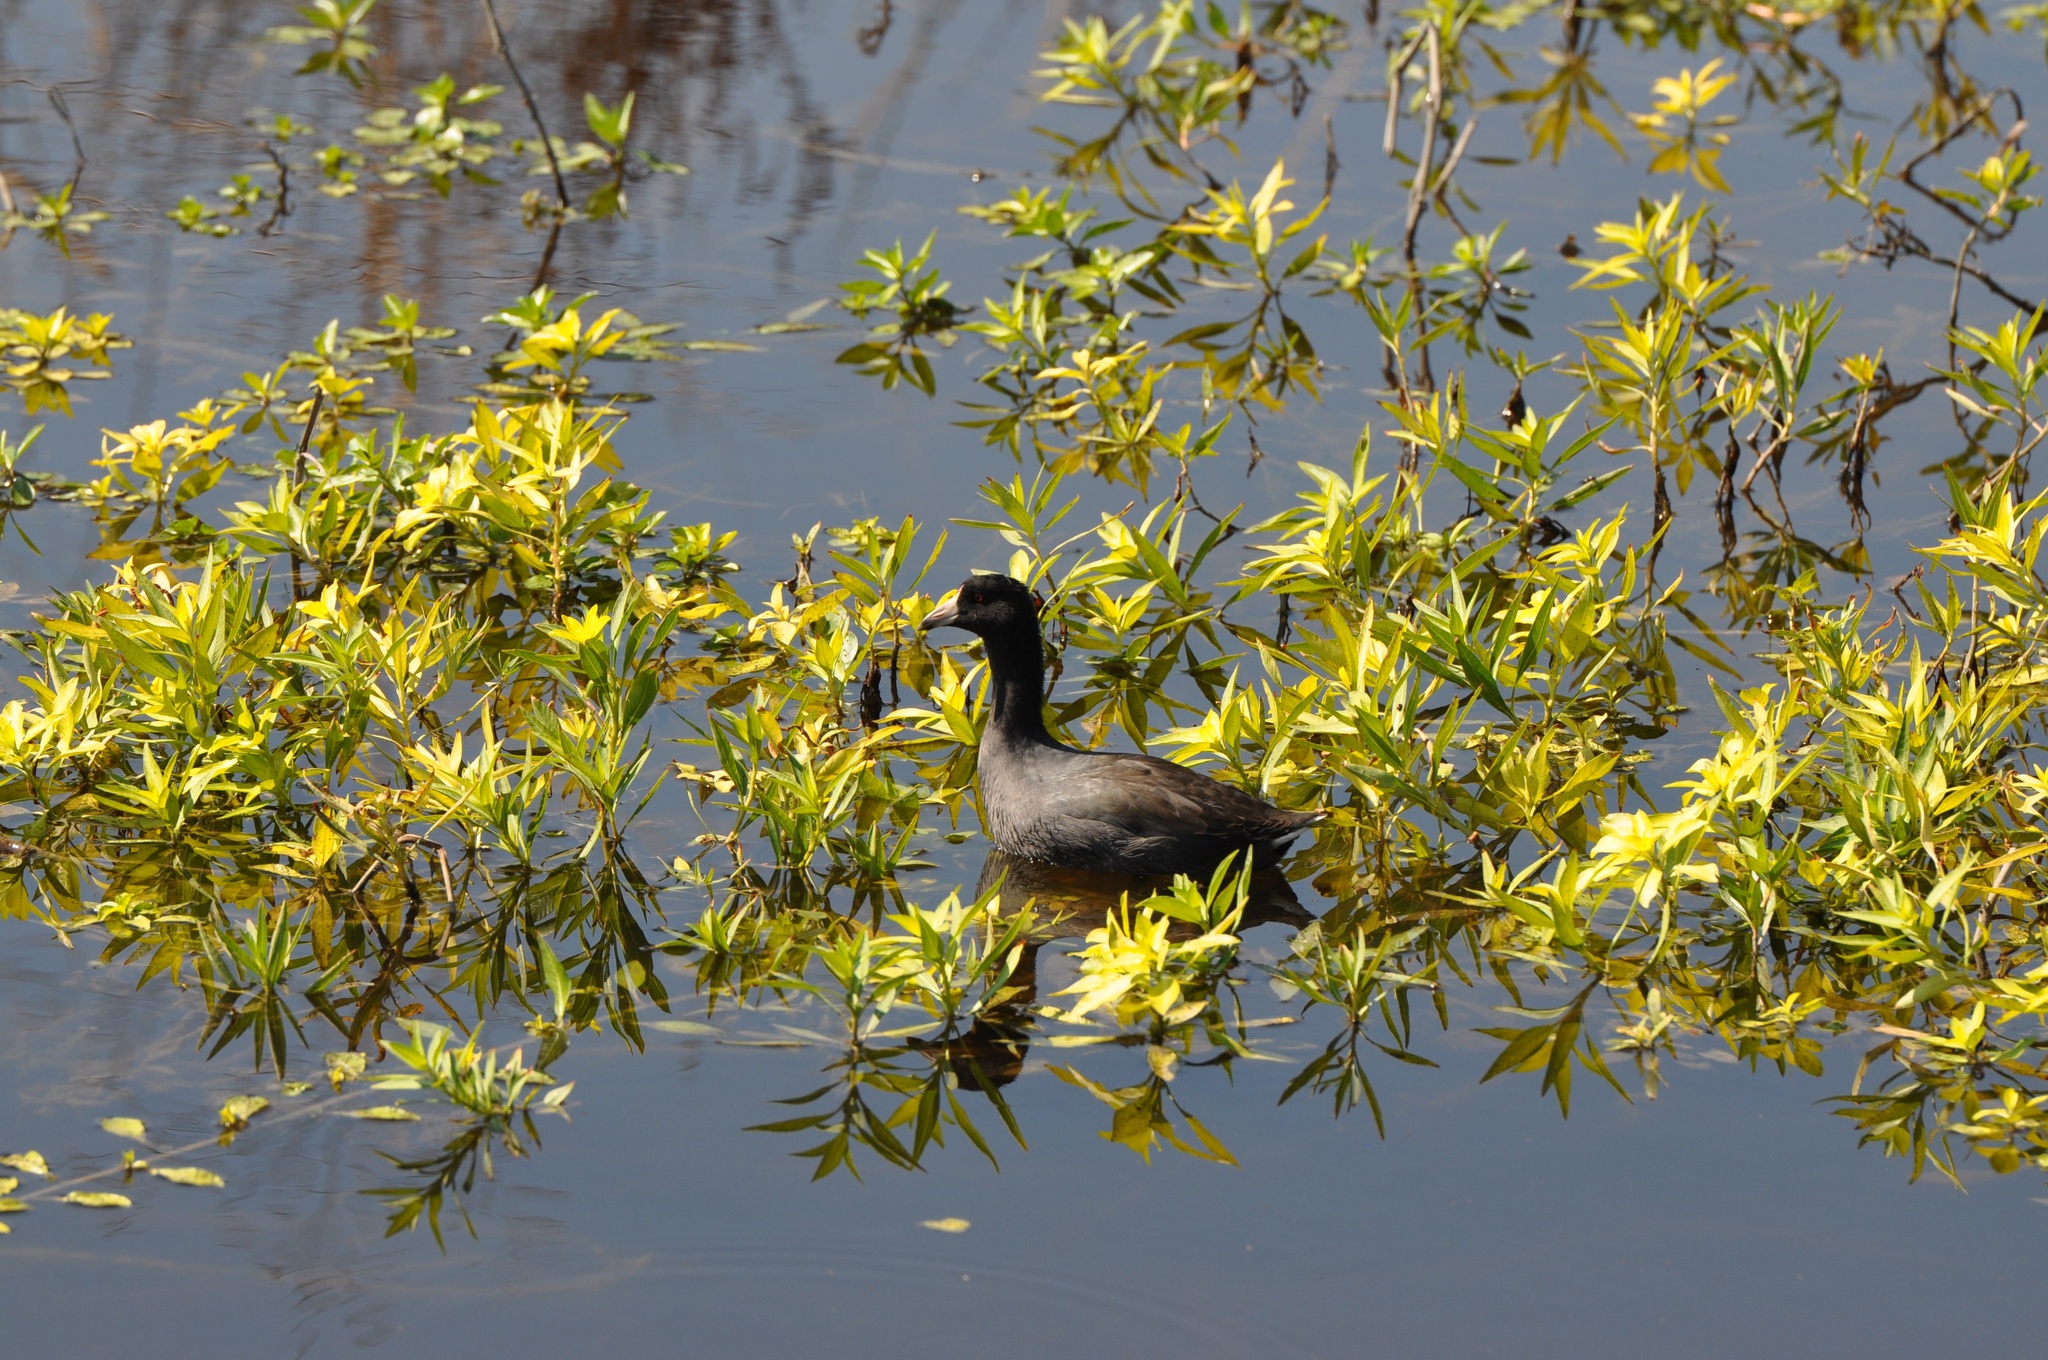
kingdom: Animalia
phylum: Chordata
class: Aves
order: Gruiformes
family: Rallidae
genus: Fulica
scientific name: Fulica americana
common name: American coot
